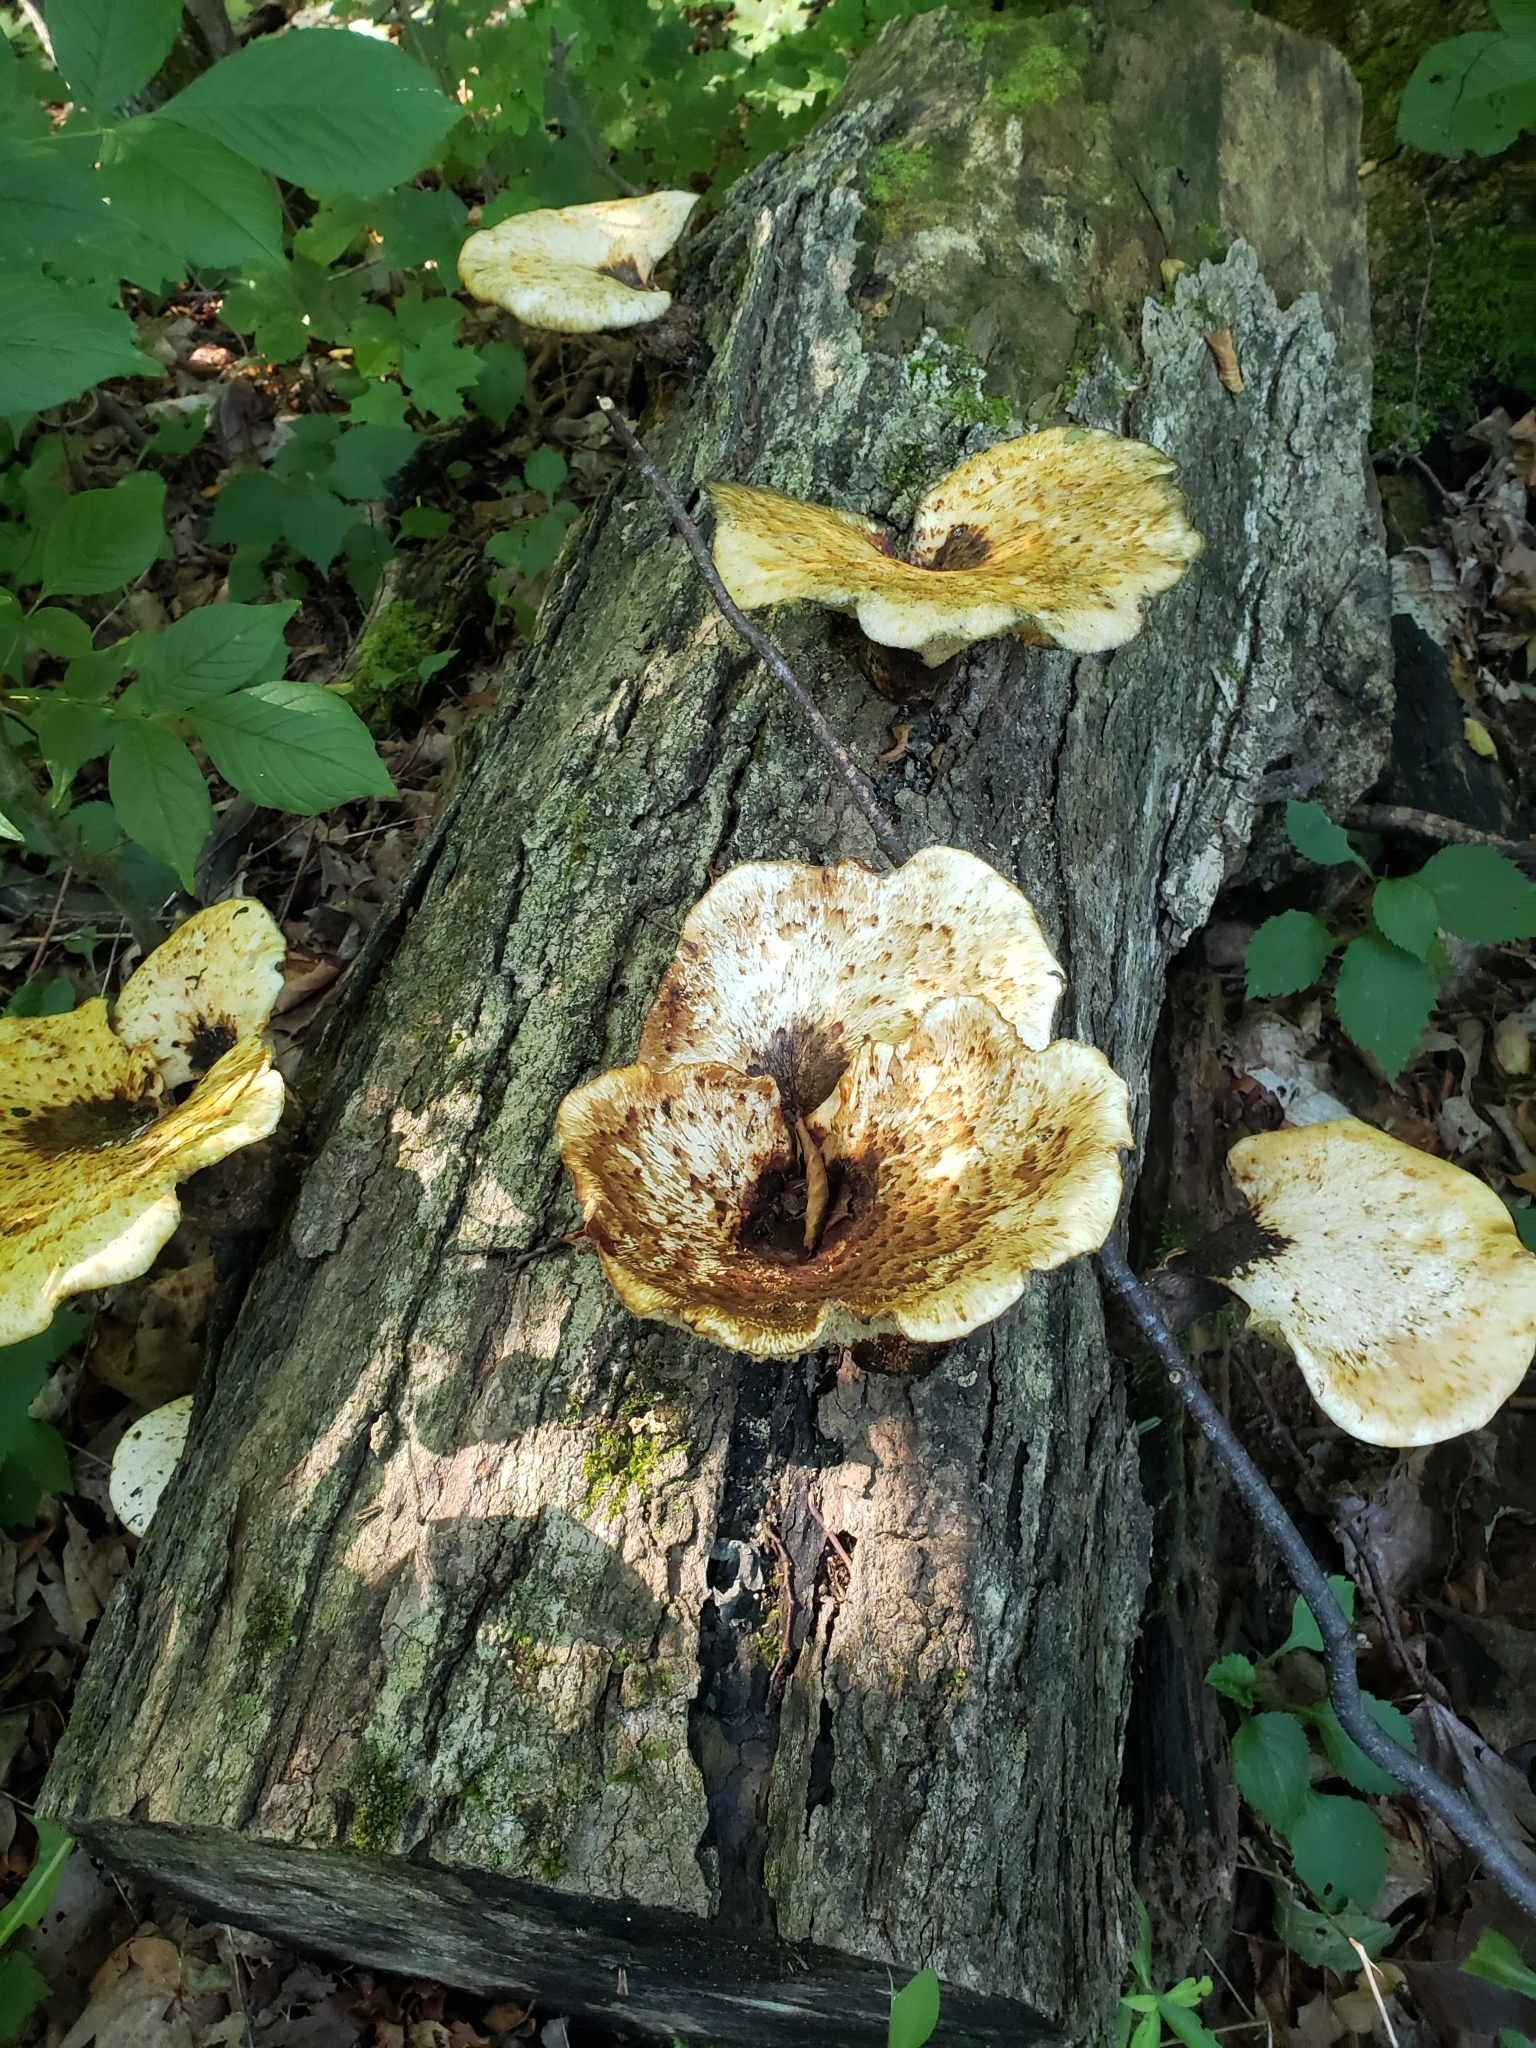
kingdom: Fungi
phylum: Basidiomycota
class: Agaricomycetes
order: Polyporales
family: Polyporaceae
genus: Cerioporus
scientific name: Cerioporus squamosus
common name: Dryad's saddle
